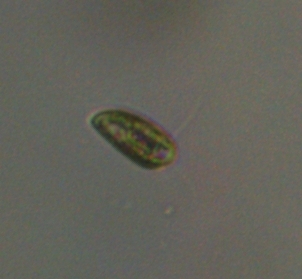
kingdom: Chromista
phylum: Cryptophyta
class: Cryptophyceae
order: Cryptomonadales
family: Cryptomonadaceae
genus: Cryptomonas
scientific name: Cryptomonas
